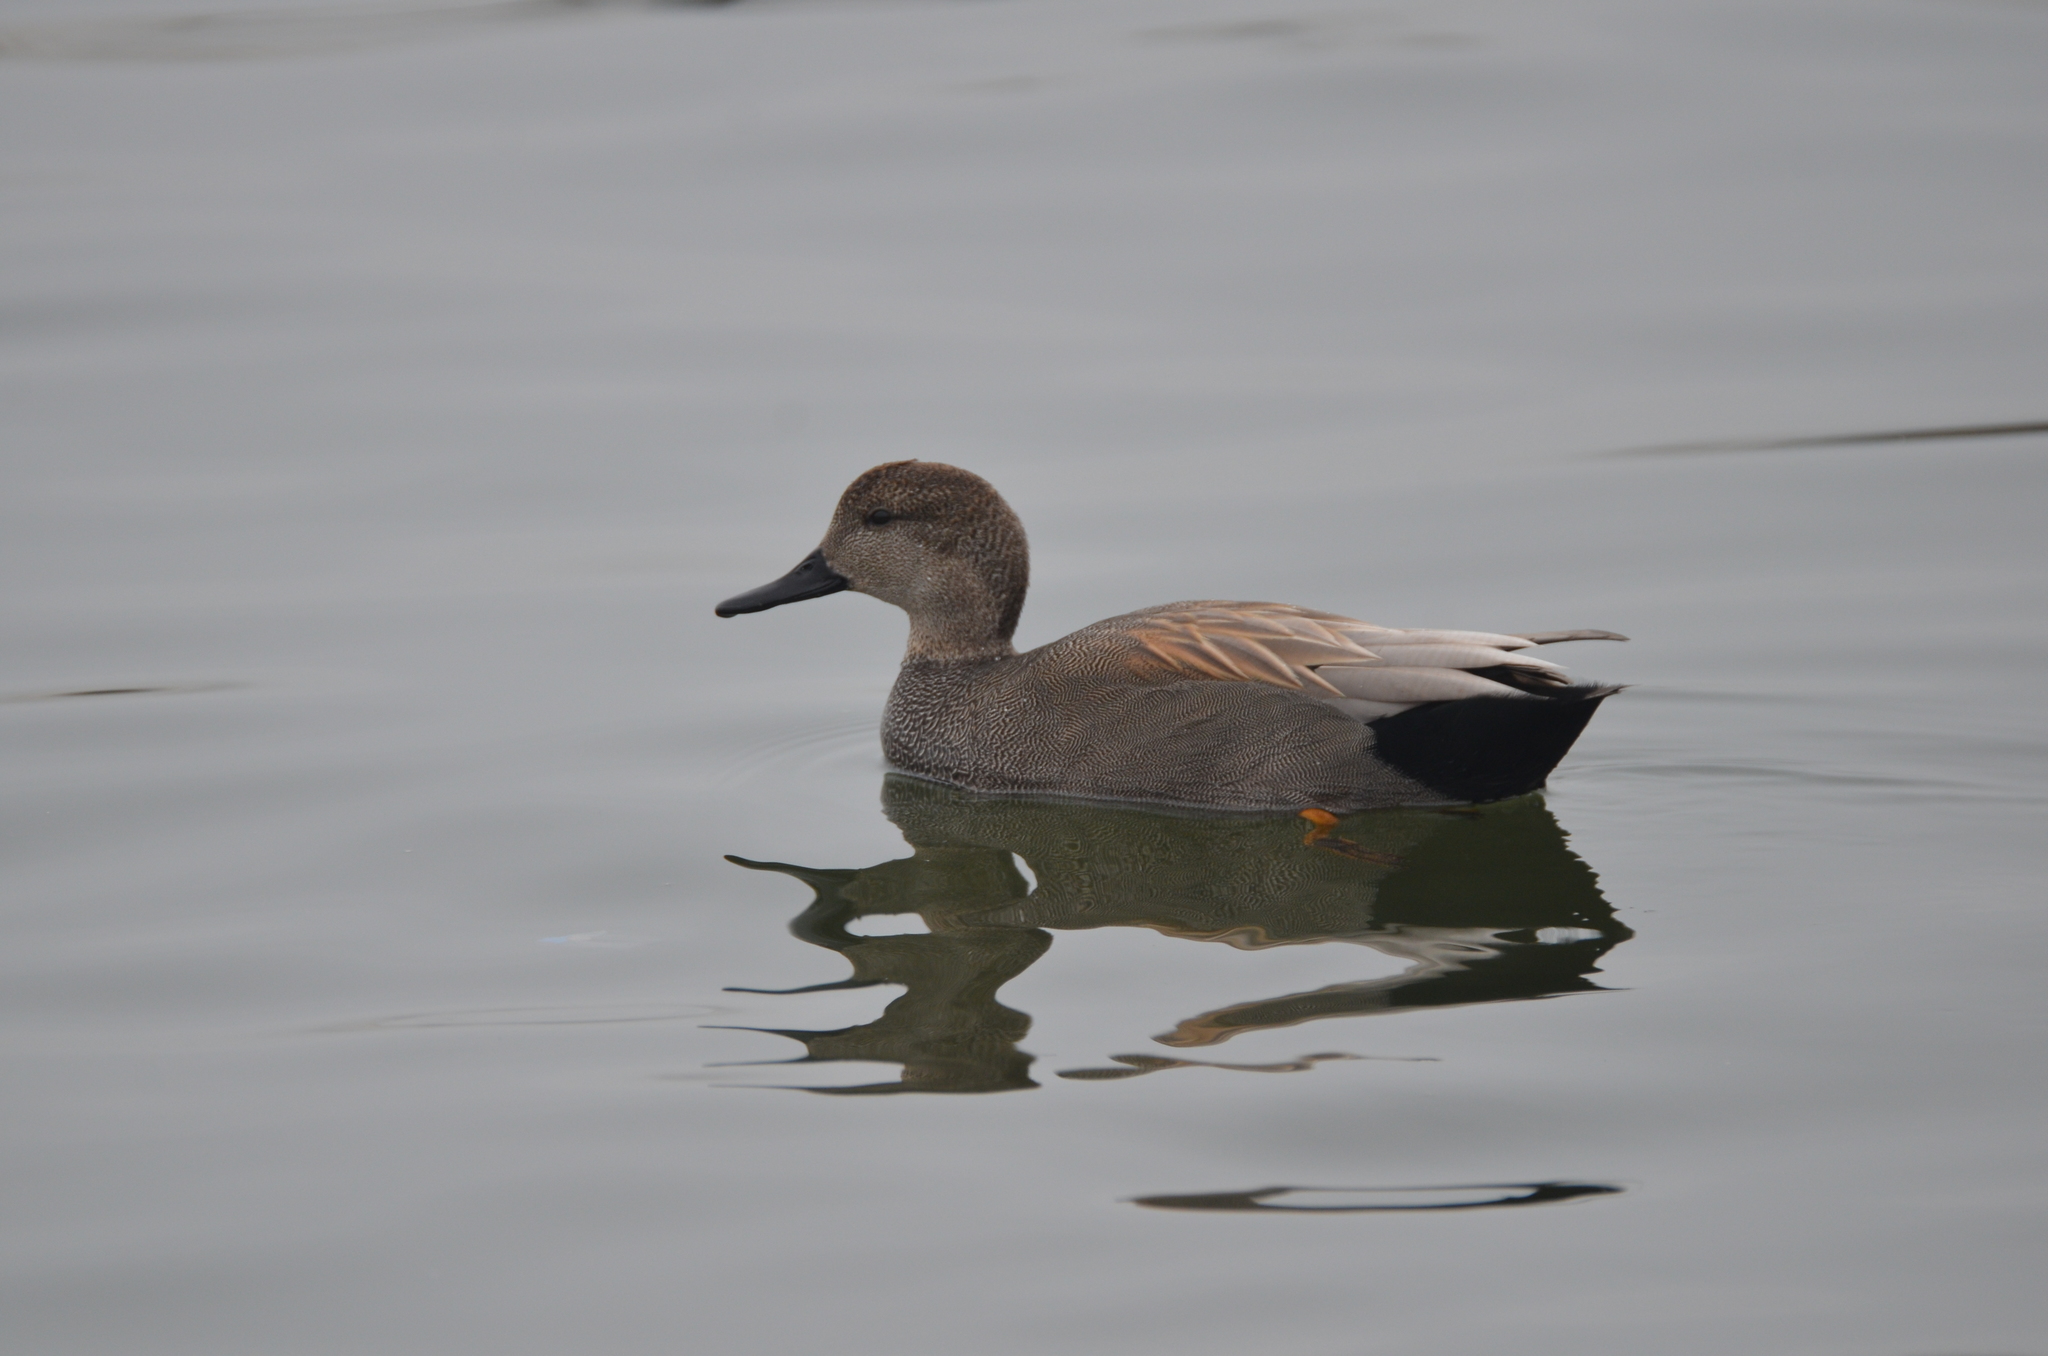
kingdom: Animalia
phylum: Chordata
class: Aves
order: Anseriformes
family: Anatidae
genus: Mareca
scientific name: Mareca strepera
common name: Gadwall
